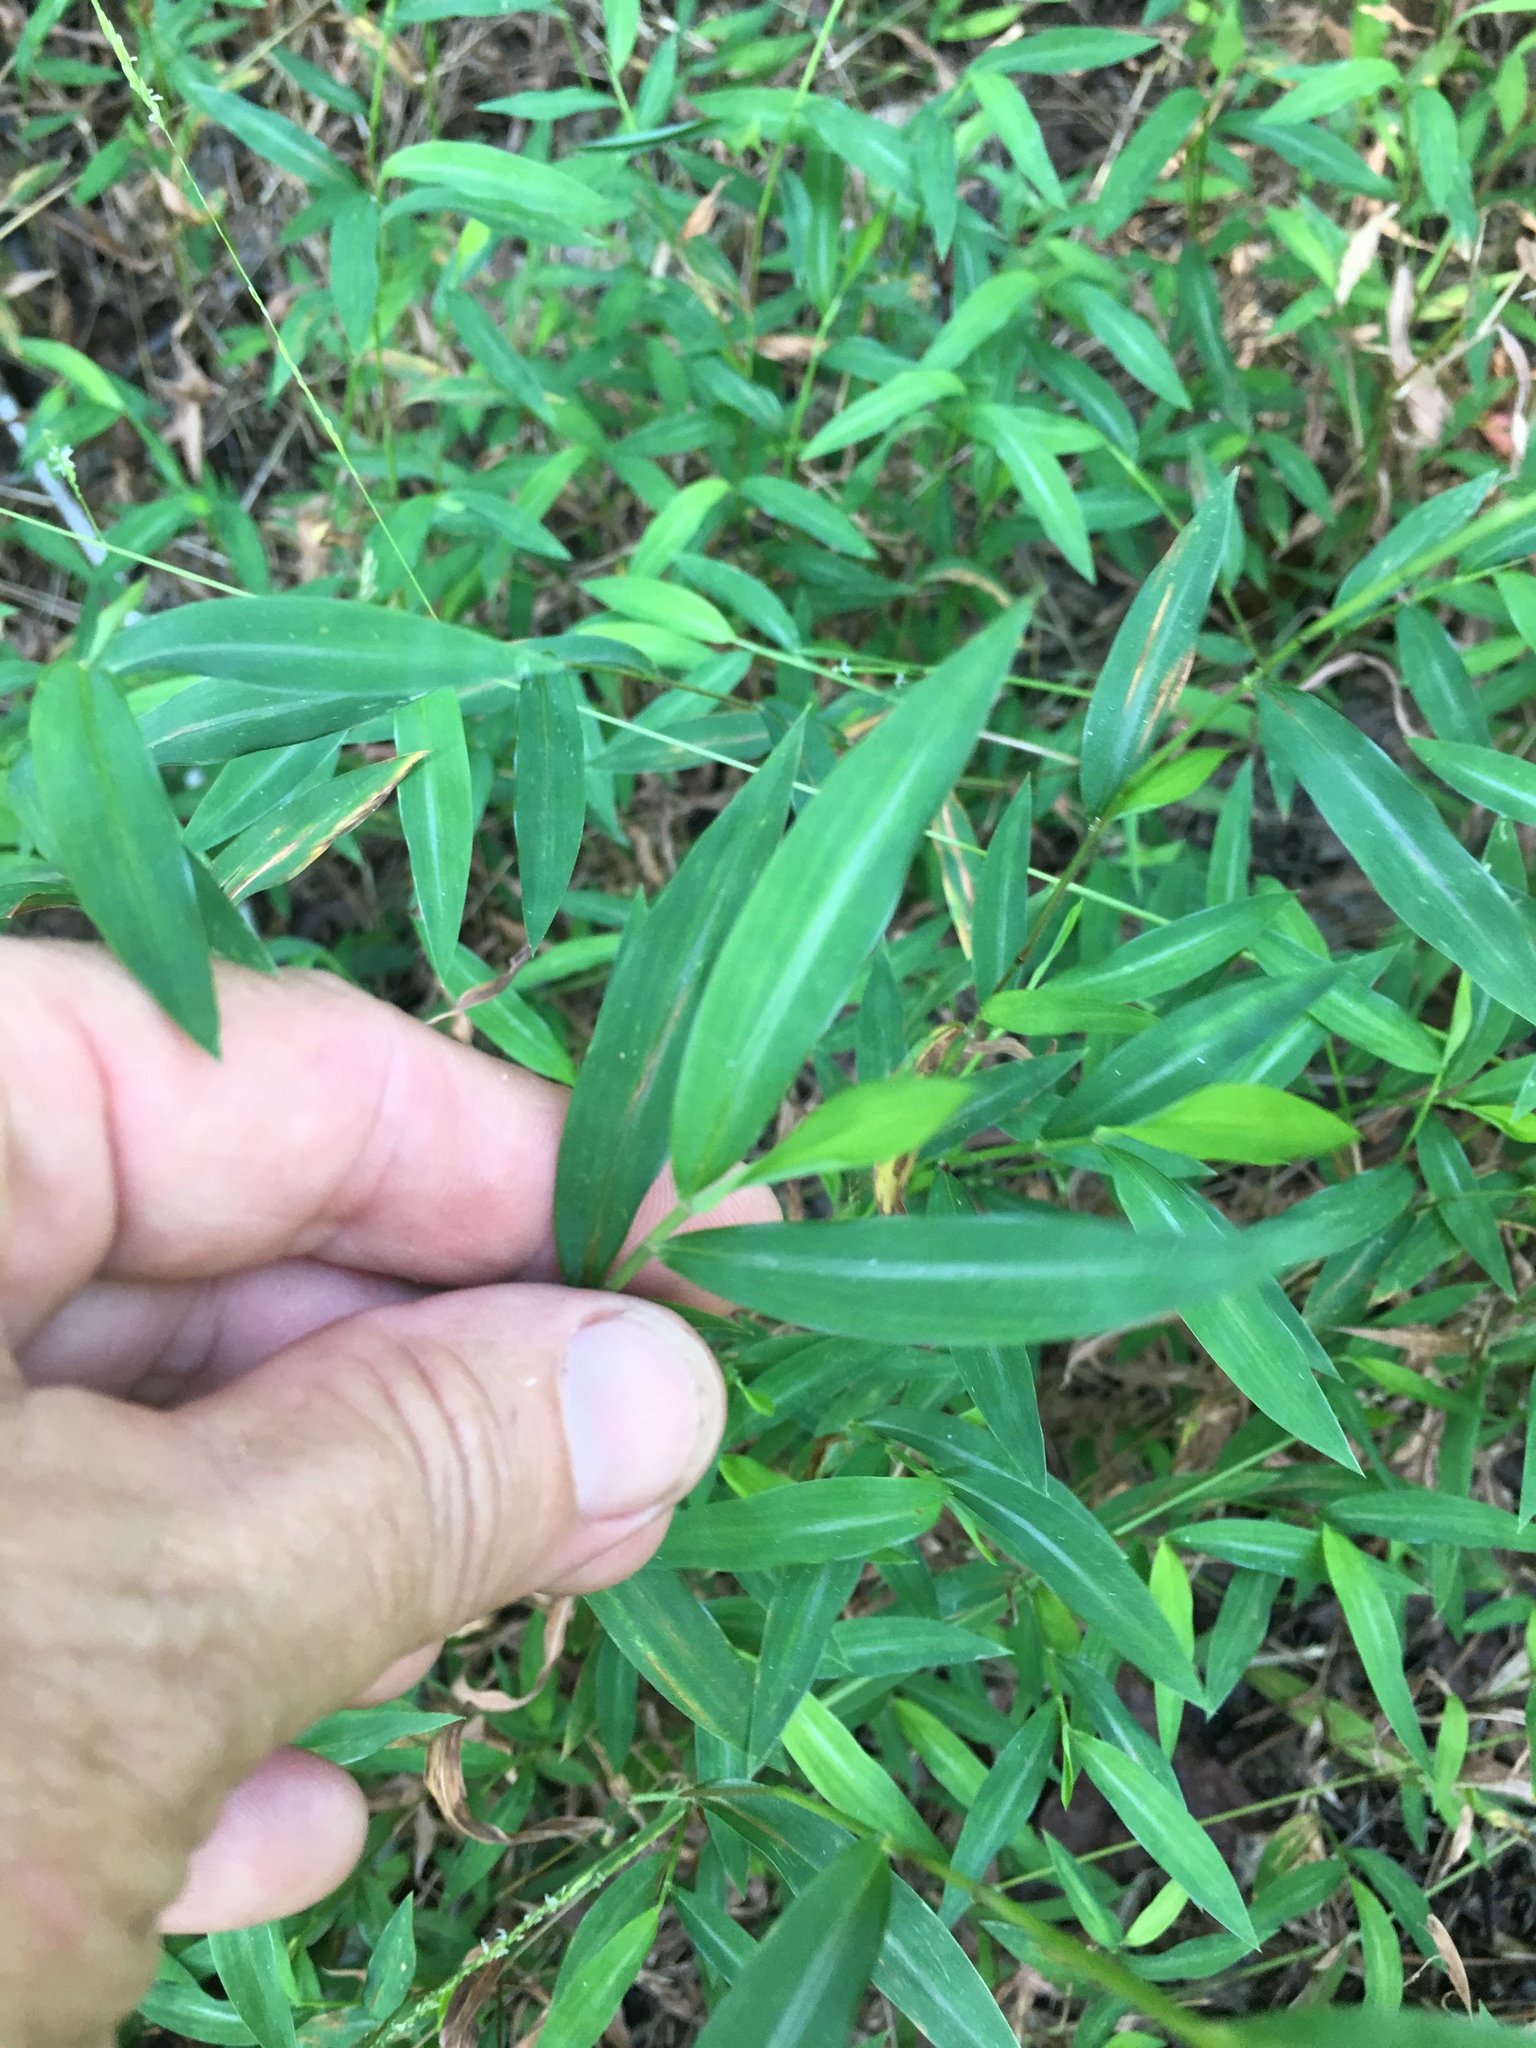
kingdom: Plantae
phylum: Tracheophyta
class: Liliopsida
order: Poales
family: Poaceae
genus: Microstegium
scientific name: Microstegium vimineum
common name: Japanese stiltgrass
